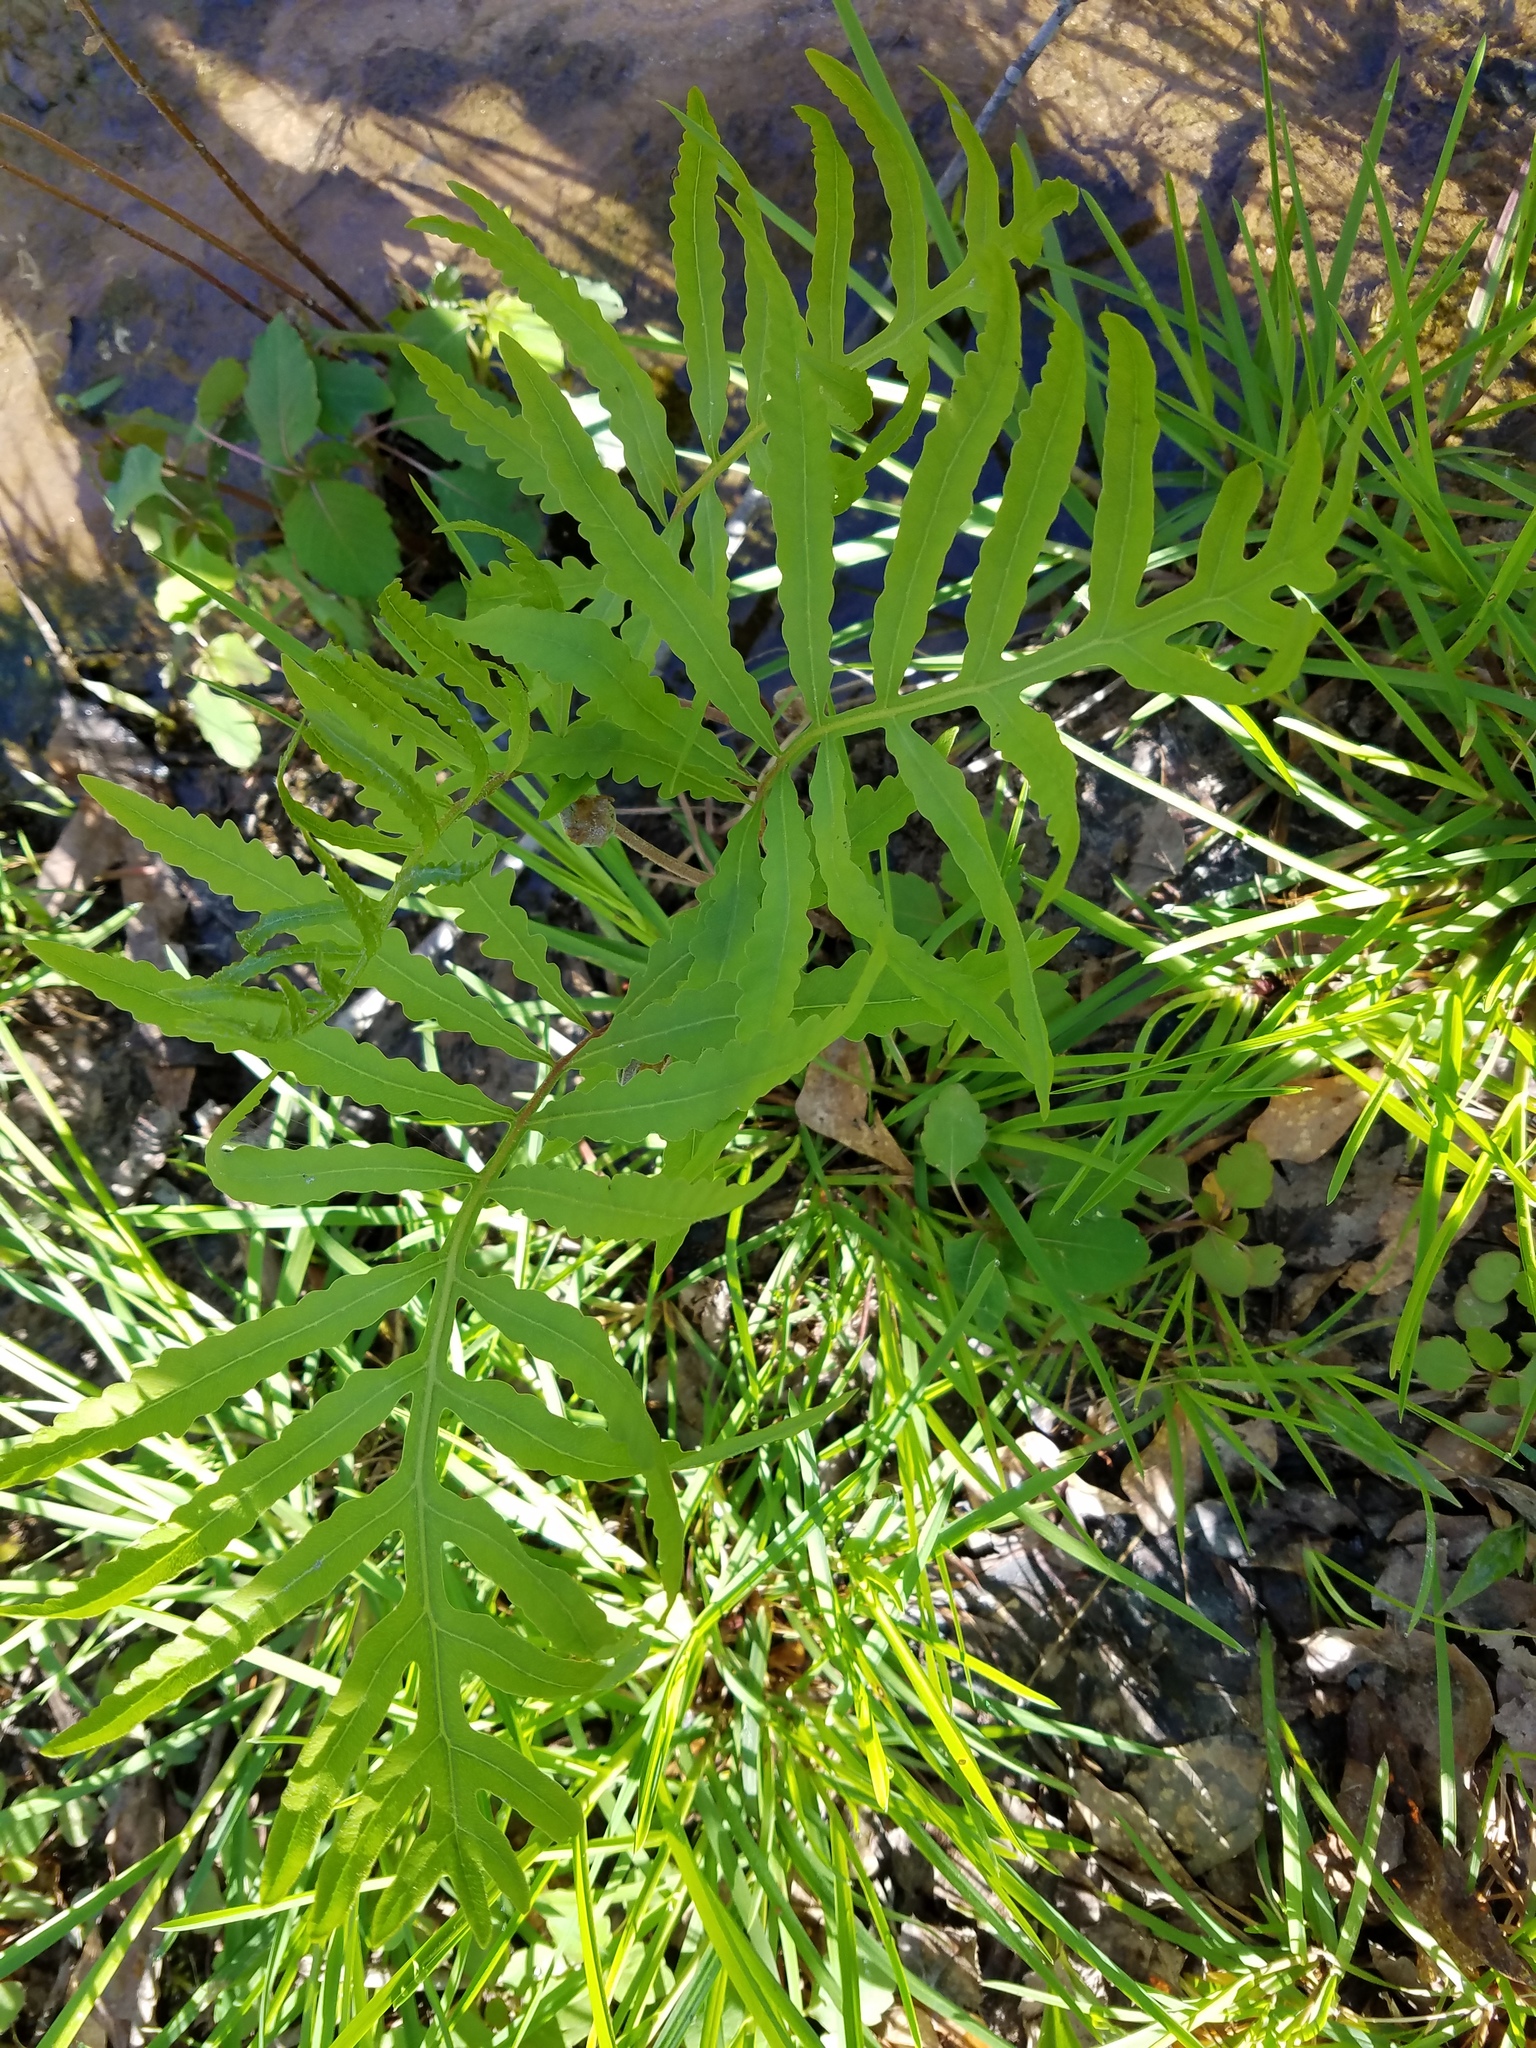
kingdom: Plantae
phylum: Tracheophyta
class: Polypodiopsida
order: Polypodiales
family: Onocleaceae
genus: Onoclea
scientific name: Onoclea sensibilis
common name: Sensitive fern
